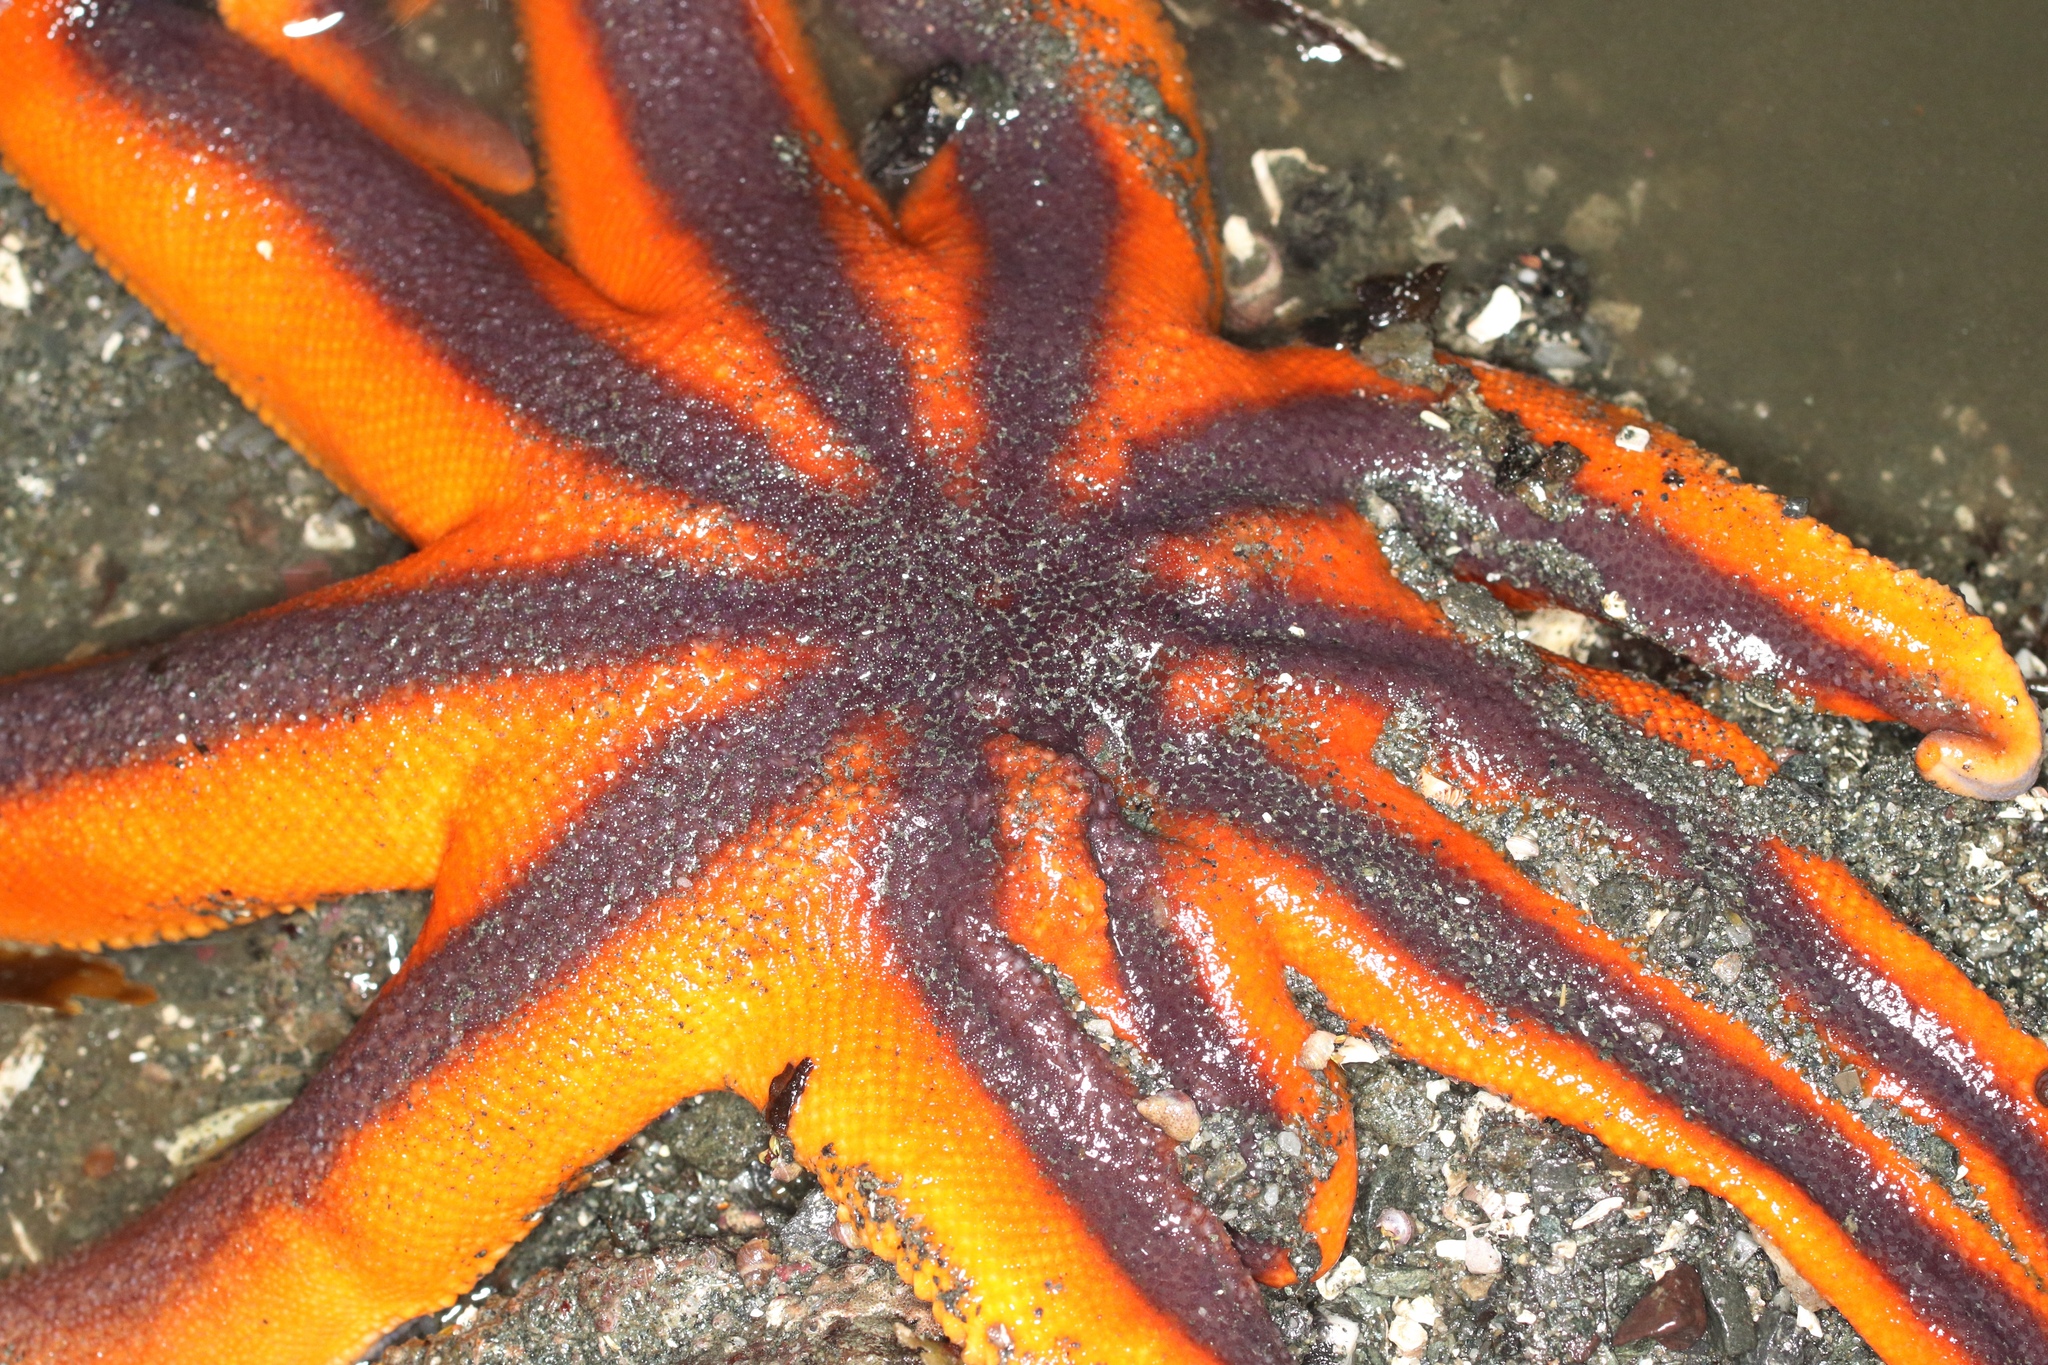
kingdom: Animalia
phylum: Echinodermata
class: Asteroidea
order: Valvatida
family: Solasteridae
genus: Solaster
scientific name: Solaster stimpsoni
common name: Orange sun star
